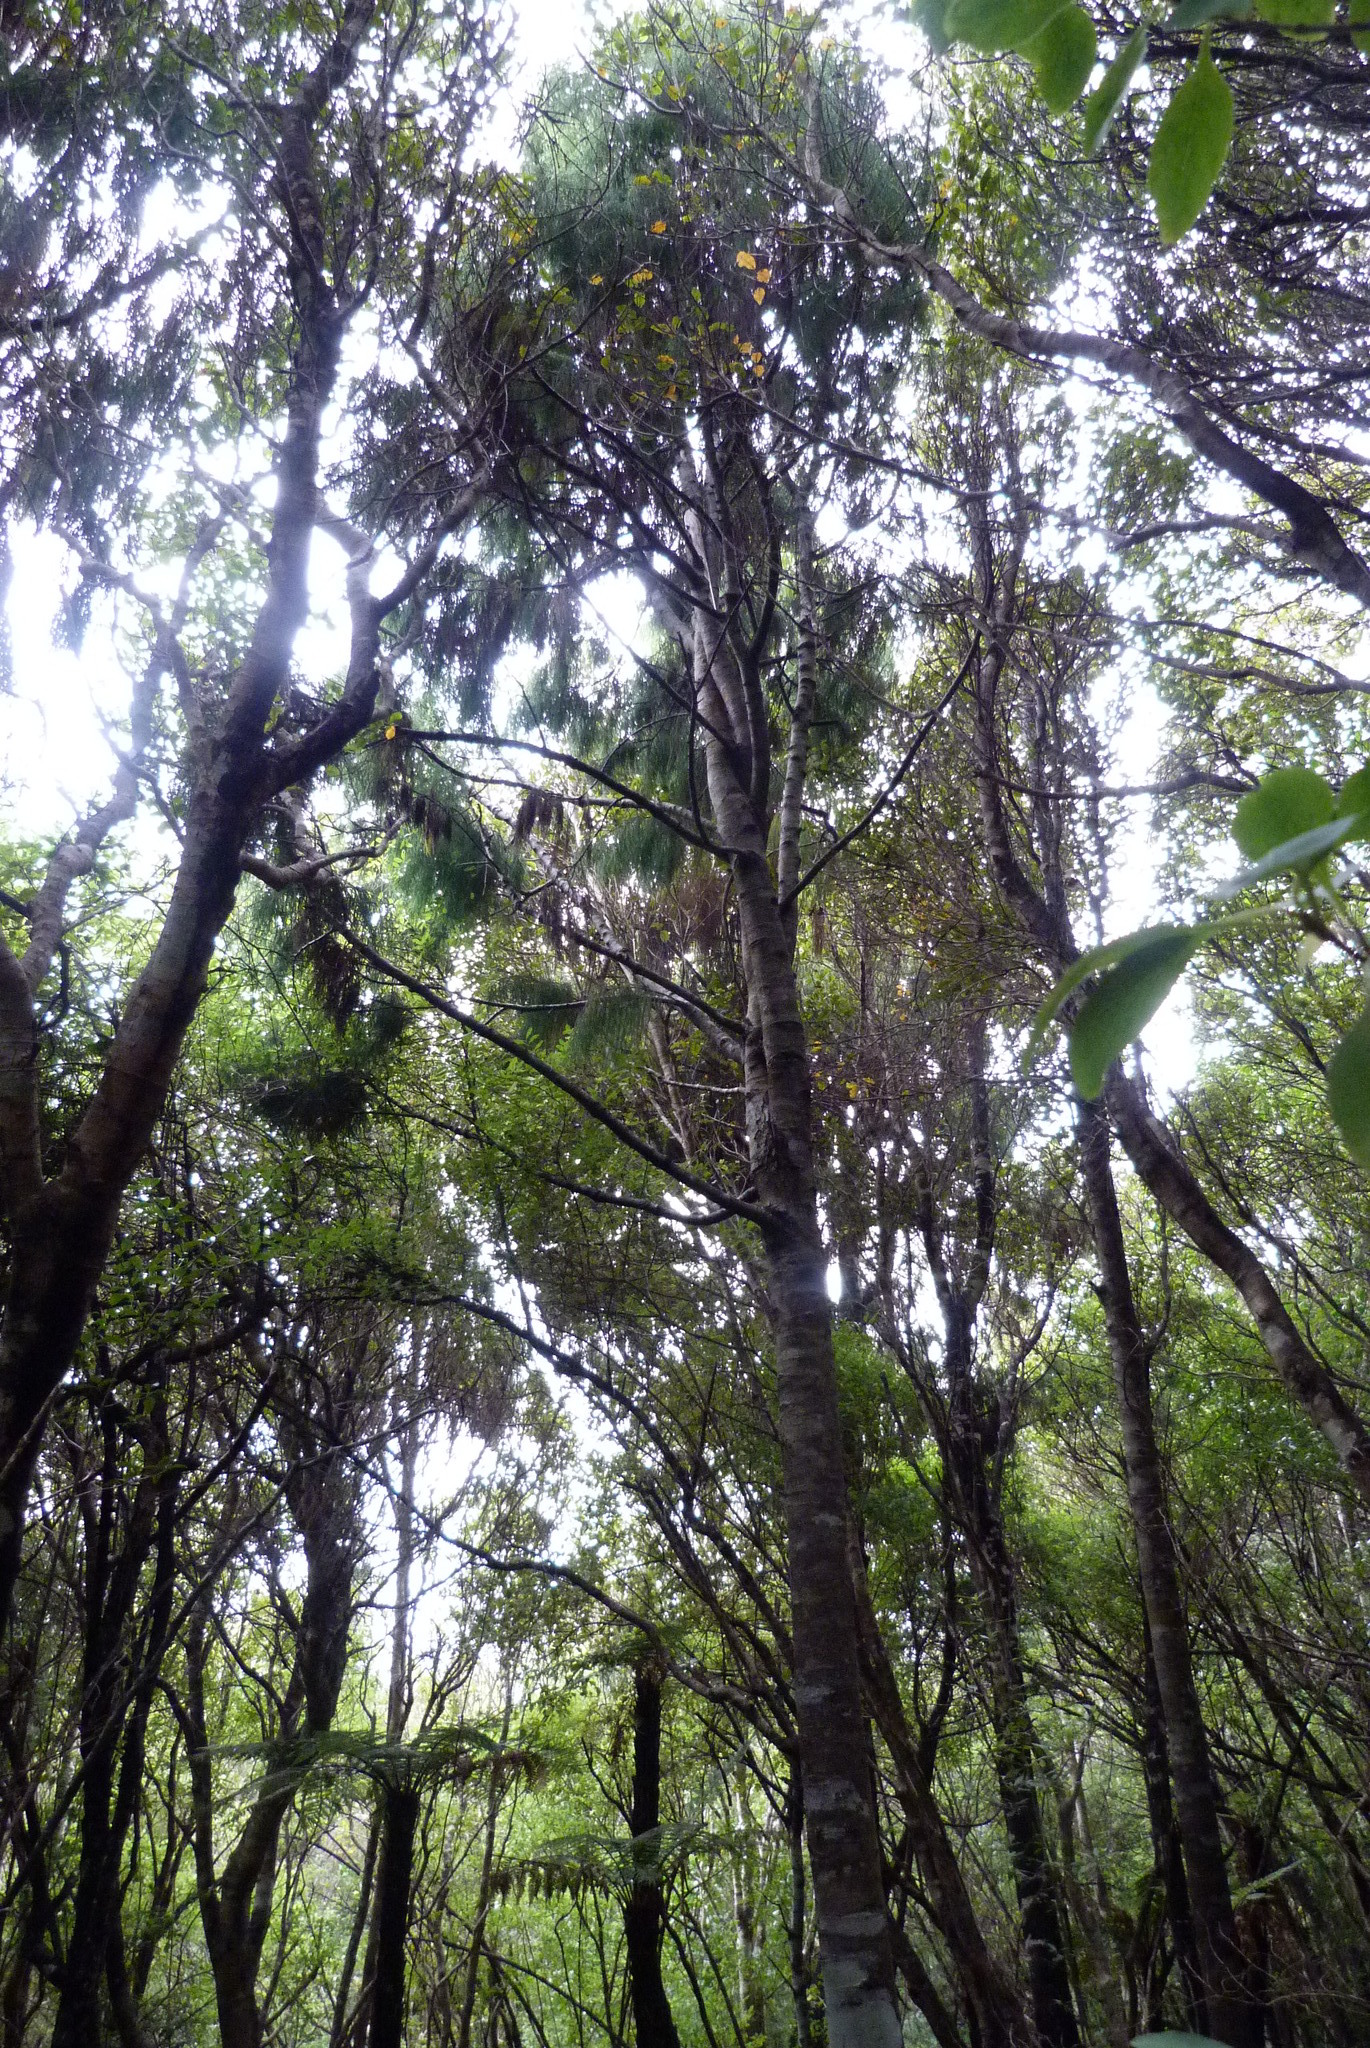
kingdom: Plantae
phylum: Tracheophyta
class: Pinopsida
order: Pinales
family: Podocarpaceae
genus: Dacrydium
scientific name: Dacrydium cupressinum
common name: Red pine
